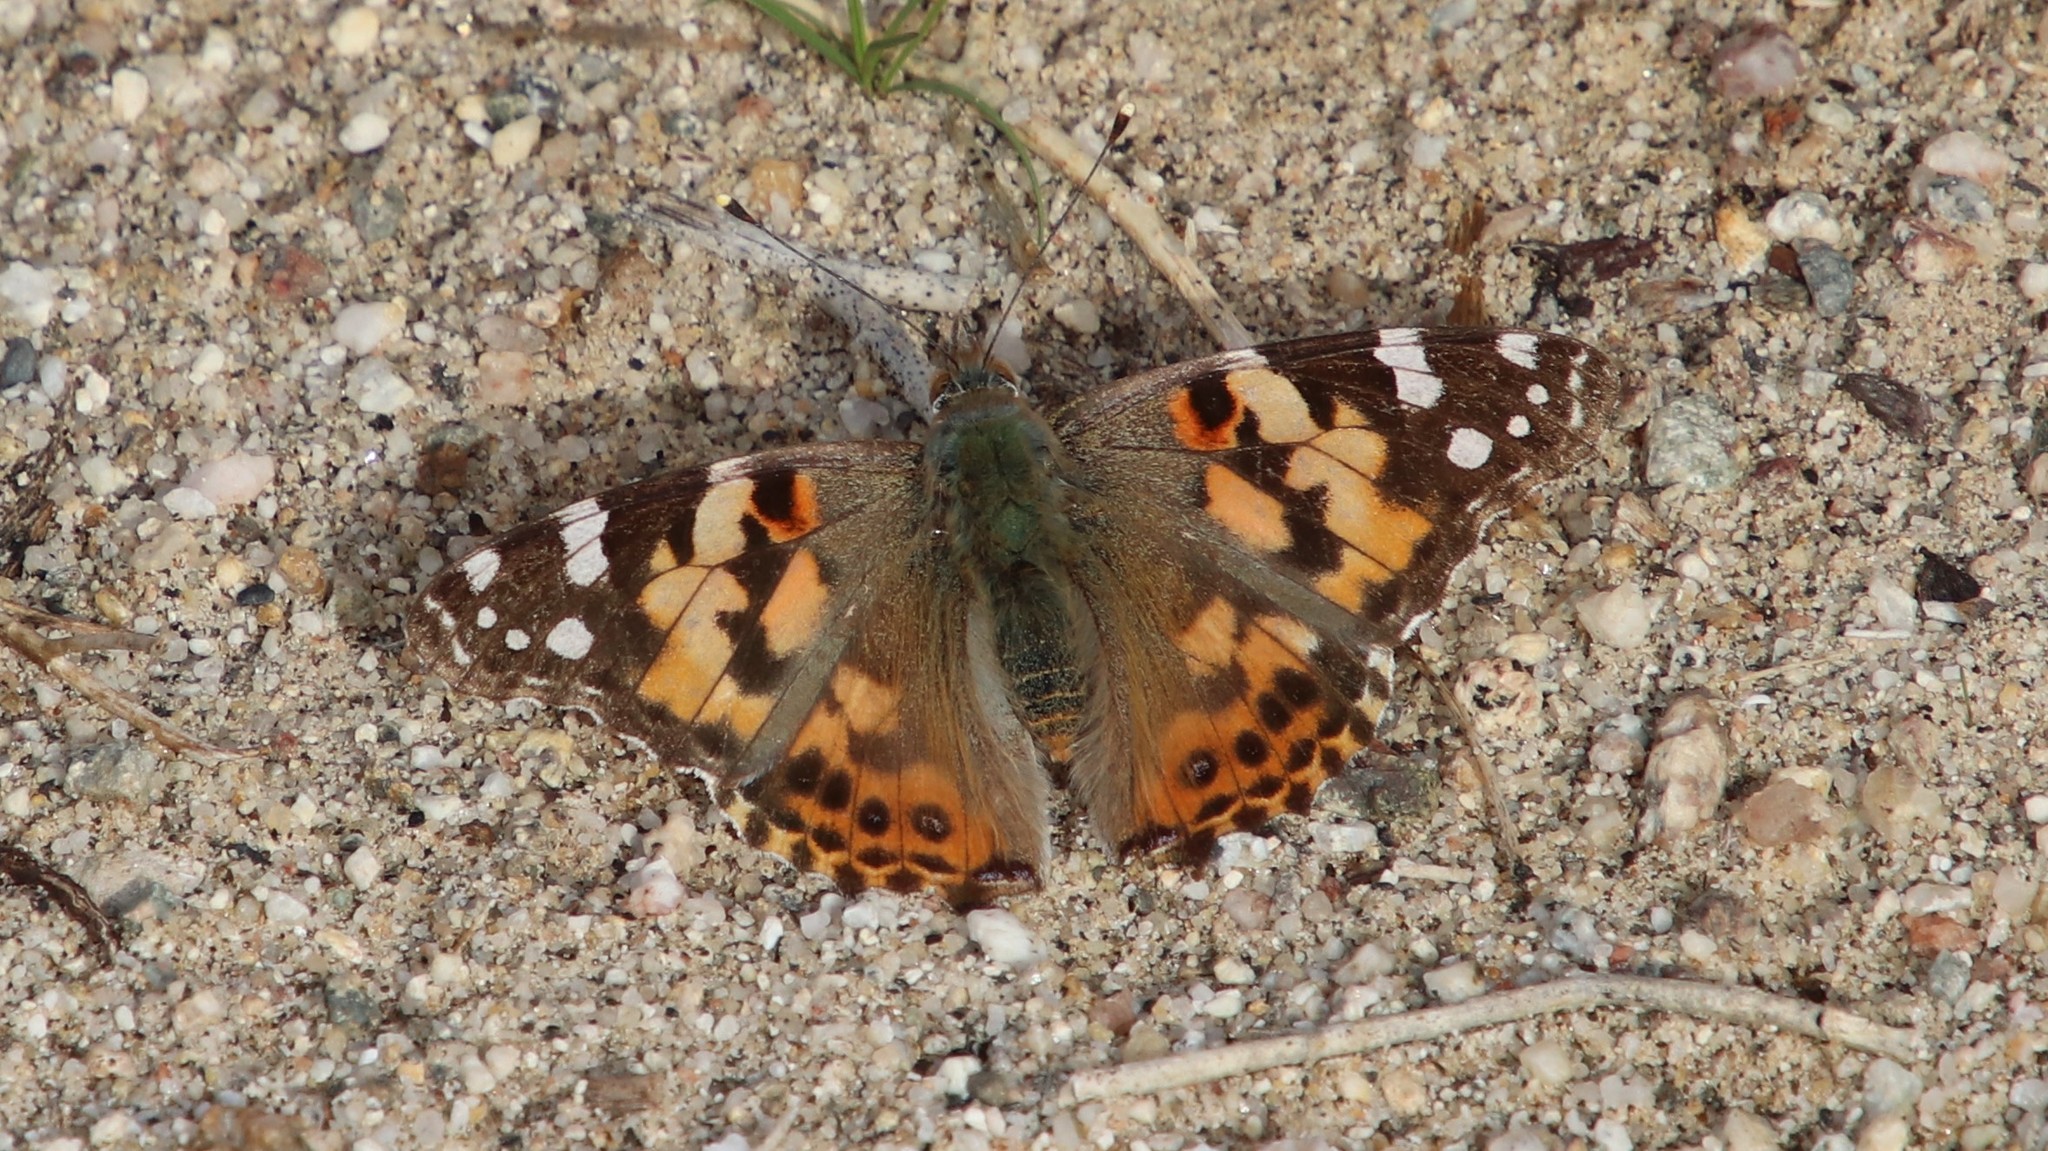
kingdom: Animalia
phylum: Arthropoda
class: Insecta
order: Lepidoptera
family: Nymphalidae
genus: Vanessa
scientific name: Vanessa cardui
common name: Painted lady
